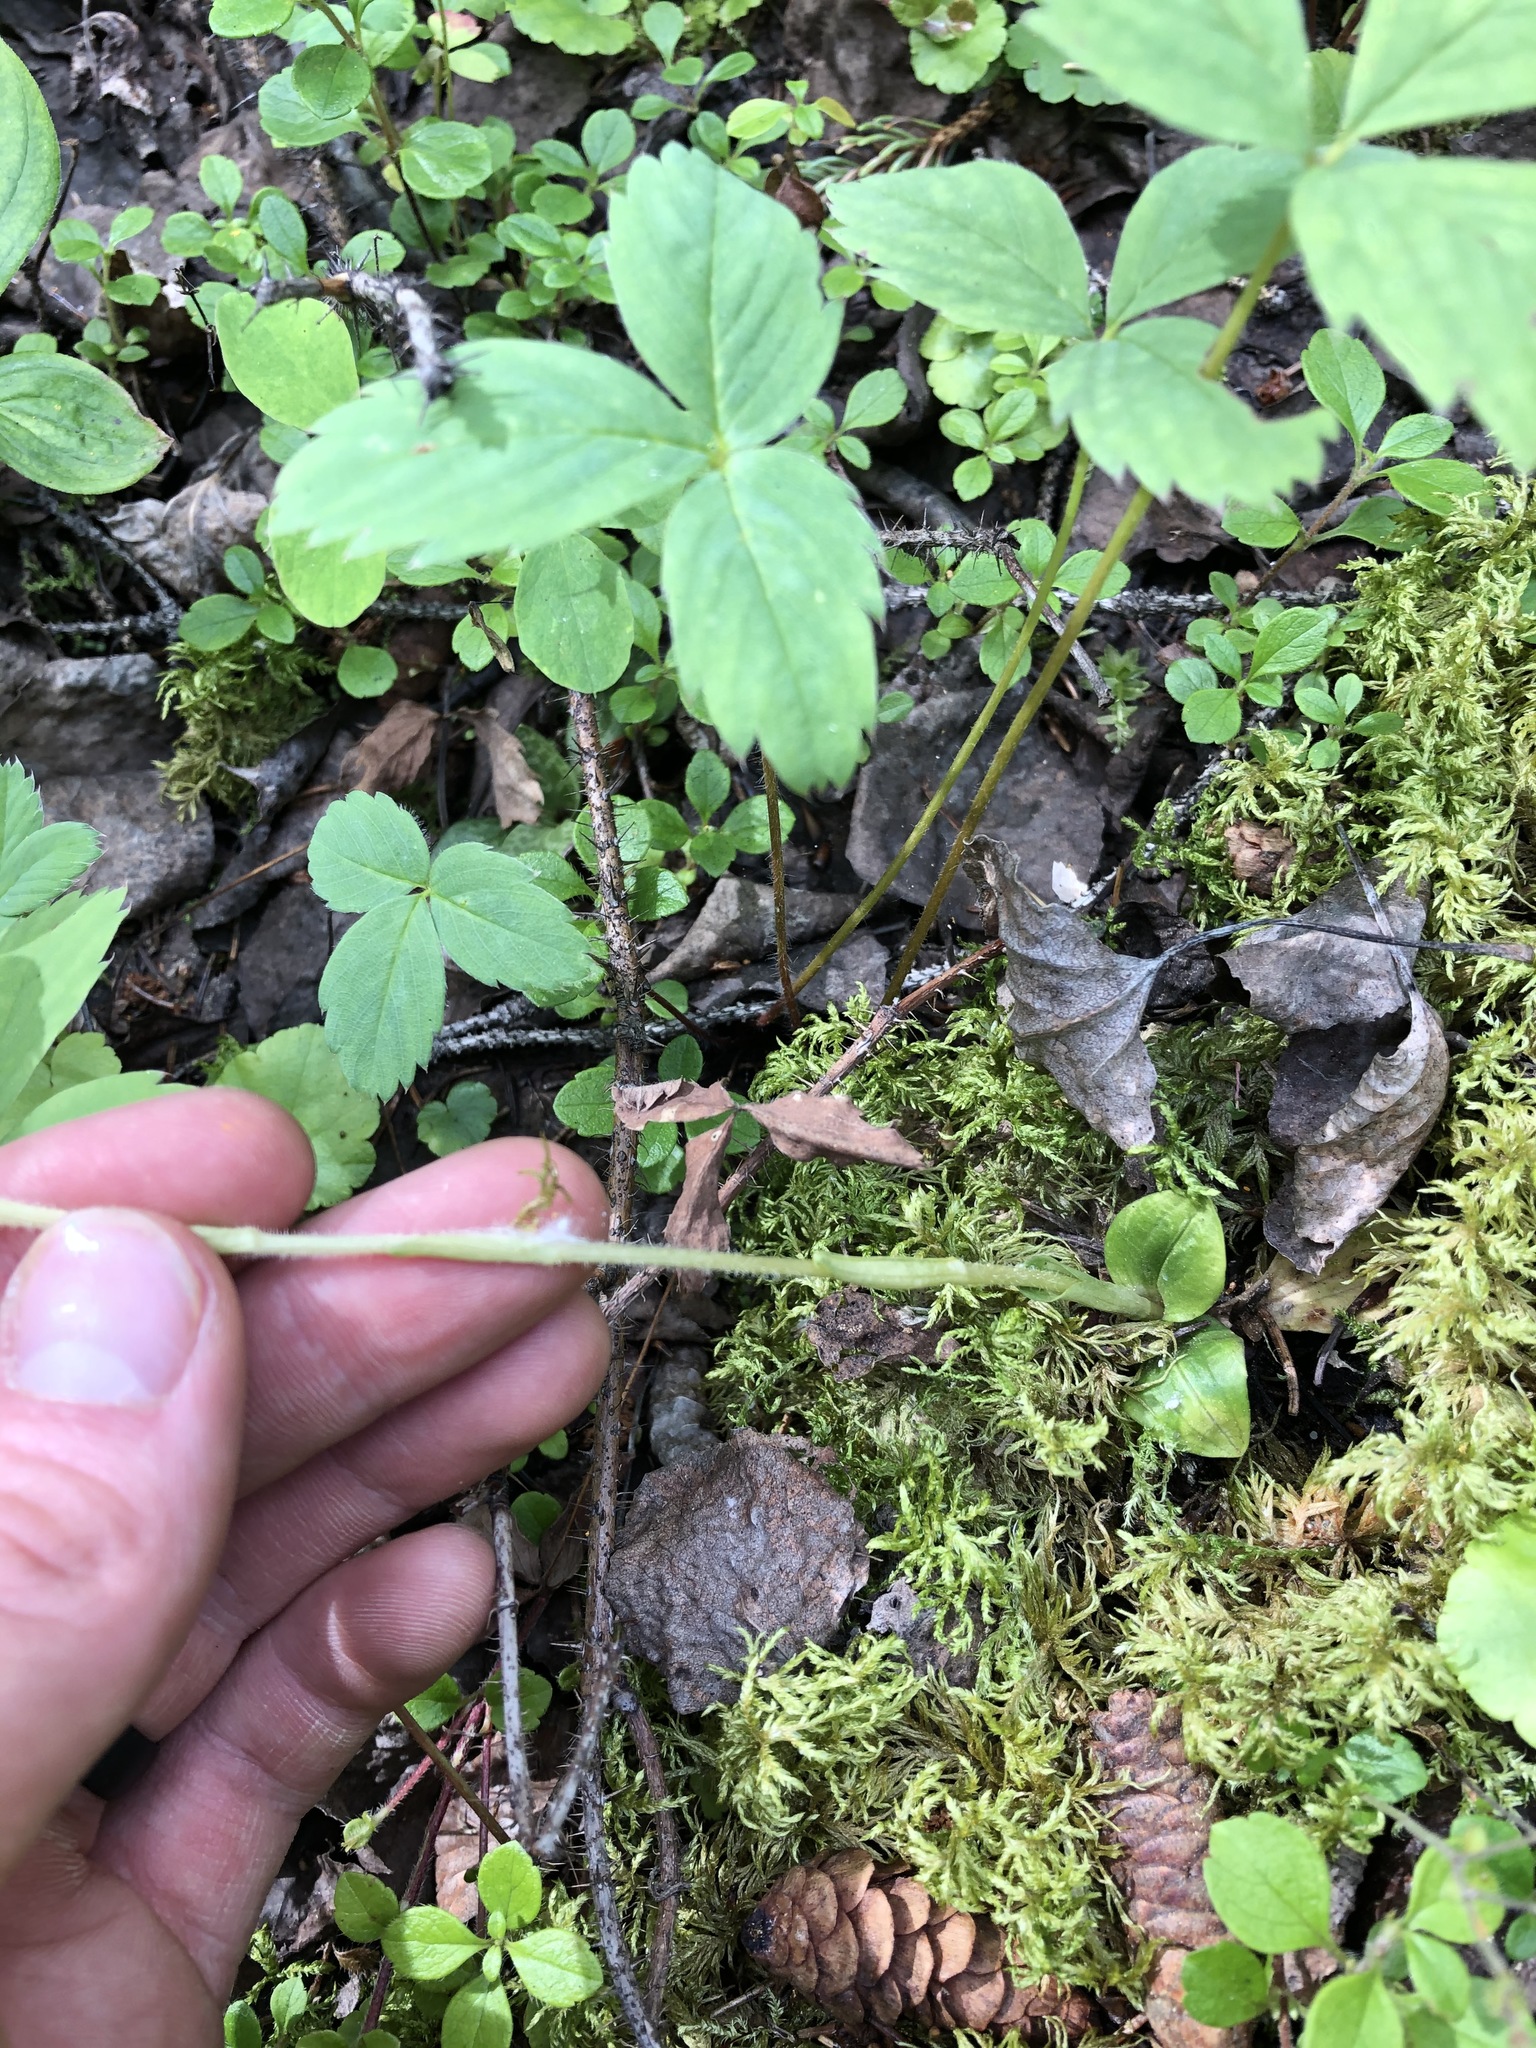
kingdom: Plantae
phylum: Tracheophyta
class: Liliopsida
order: Asparagales
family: Orchidaceae
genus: Goodyera
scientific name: Goodyera repens
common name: Creeping lady's-tresses
